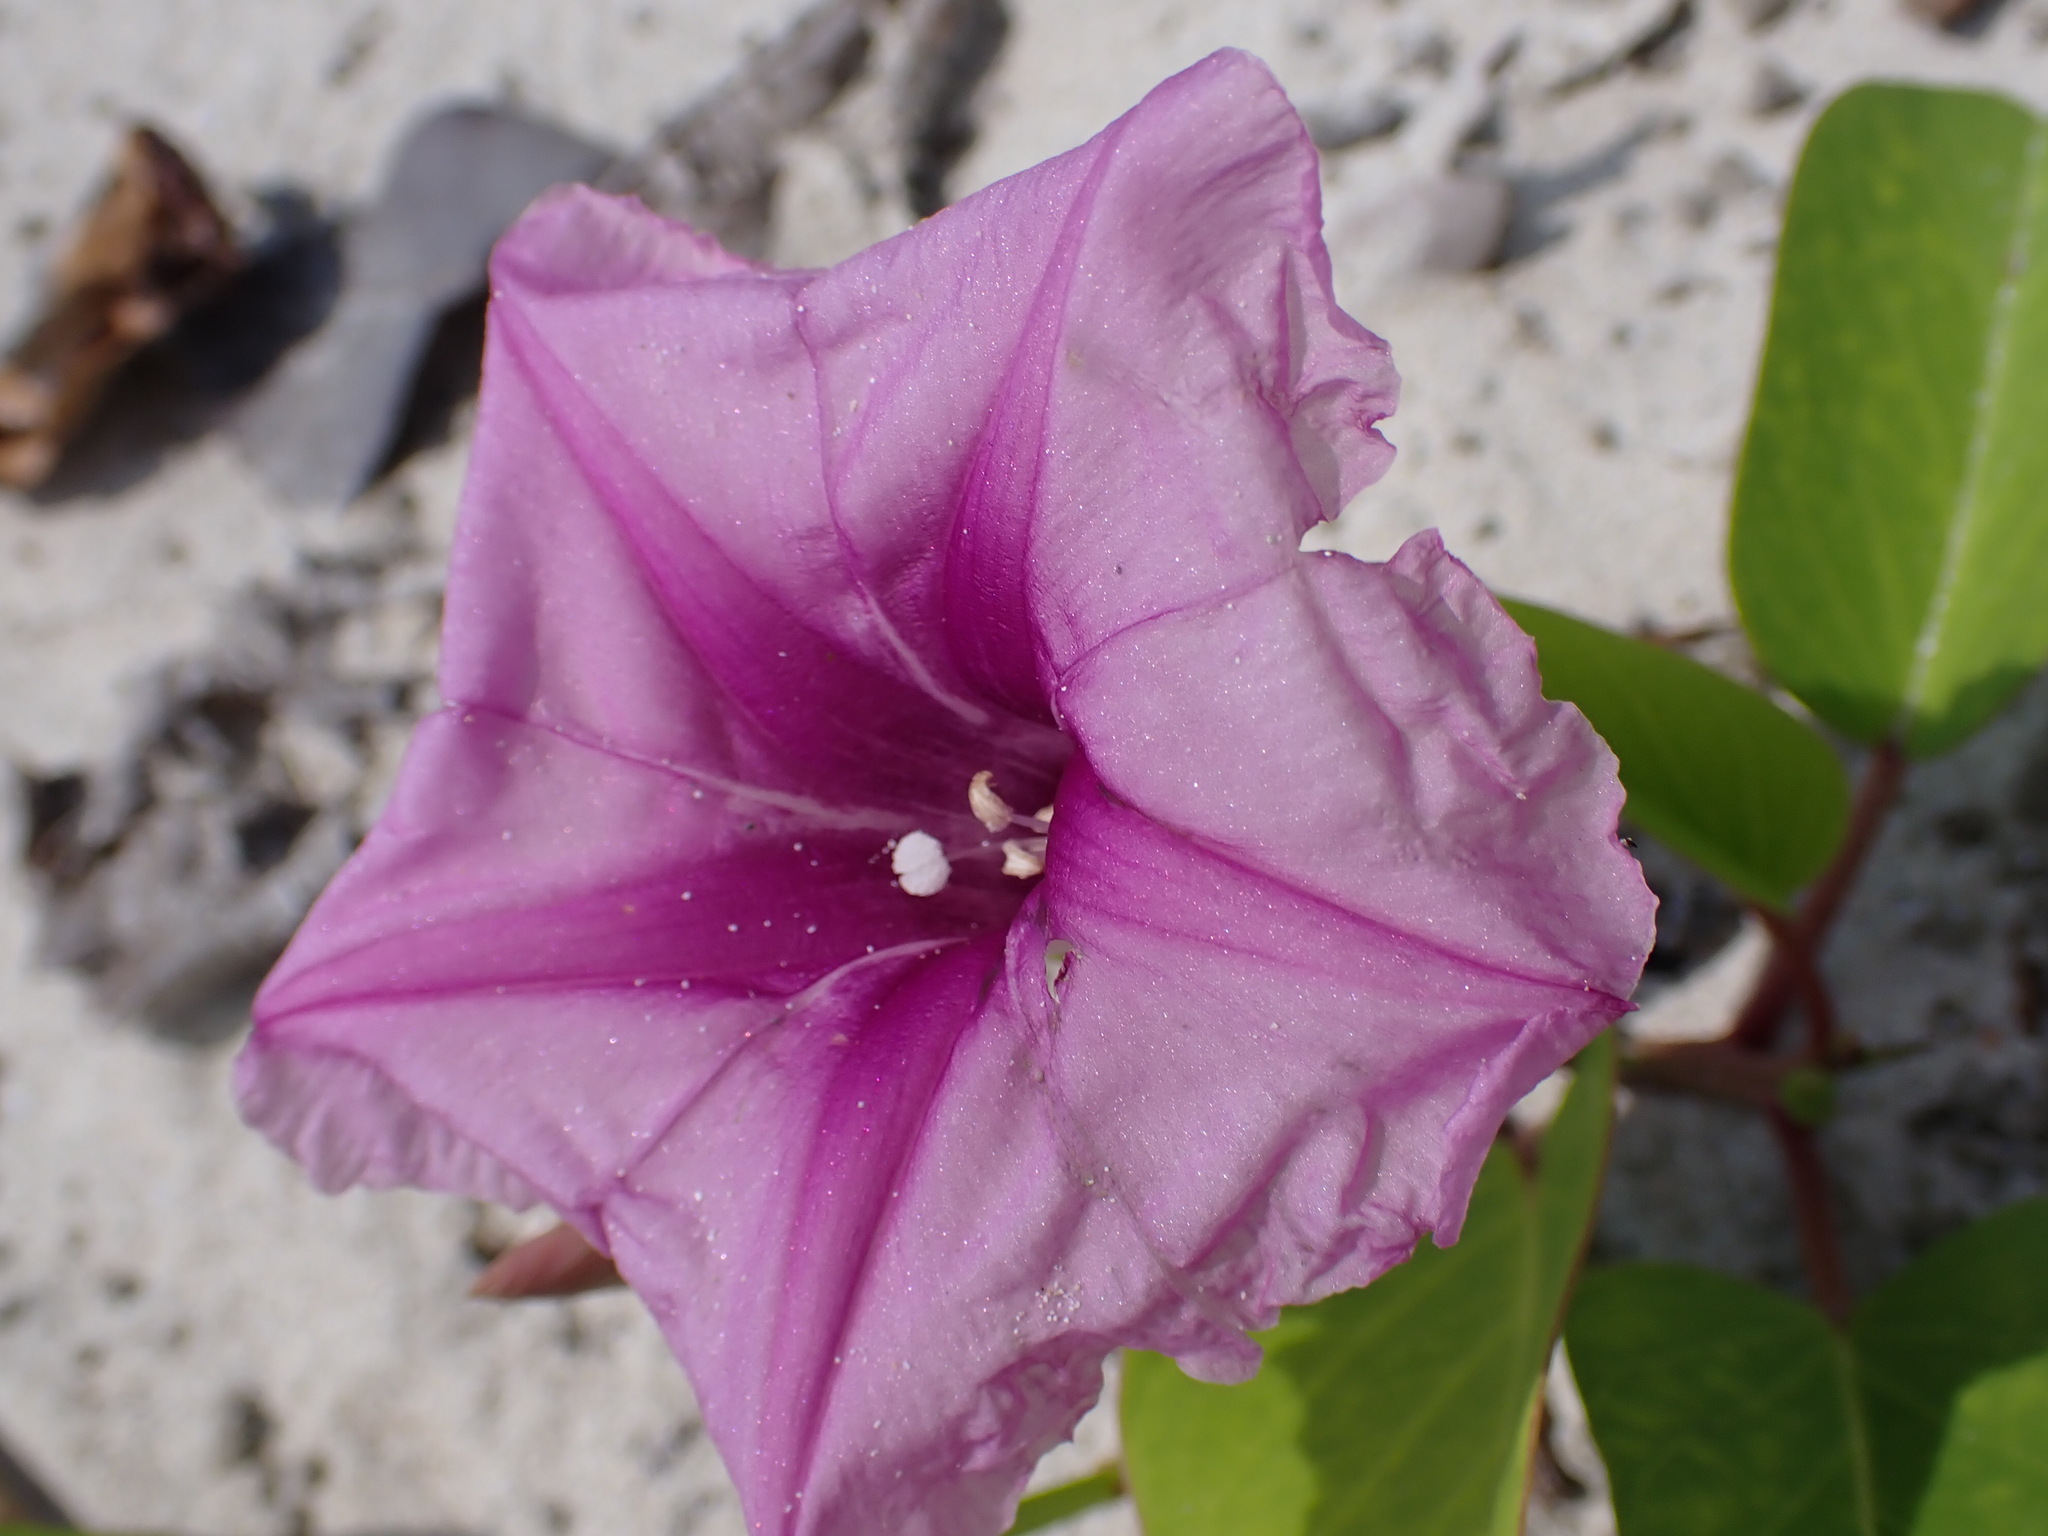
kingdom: Plantae
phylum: Tracheophyta
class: Magnoliopsida
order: Solanales
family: Convolvulaceae
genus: Ipomoea
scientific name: Ipomoea pes-caprae
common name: Beach morning glory
